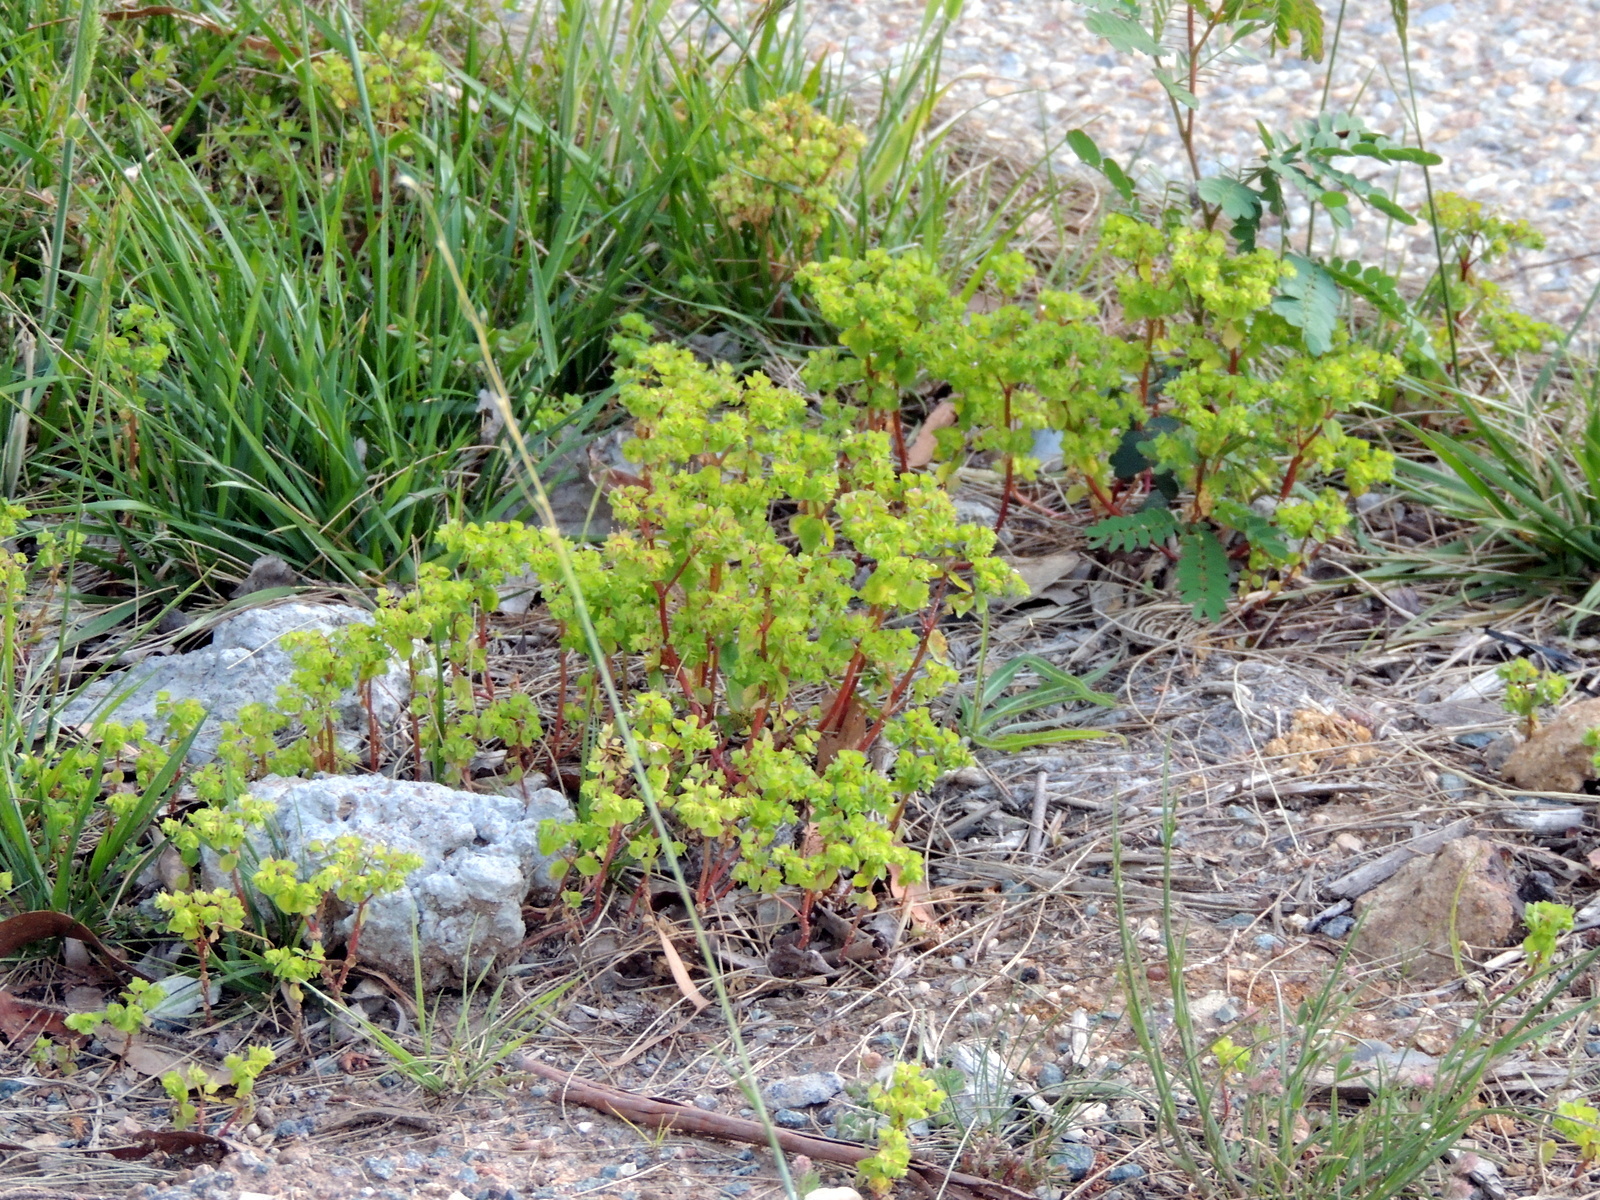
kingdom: Plantae
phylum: Tracheophyta
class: Magnoliopsida
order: Malpighiales
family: Euphorbiaceae
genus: Euphorbia
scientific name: Euphorbia peplus
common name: Petty spurge
